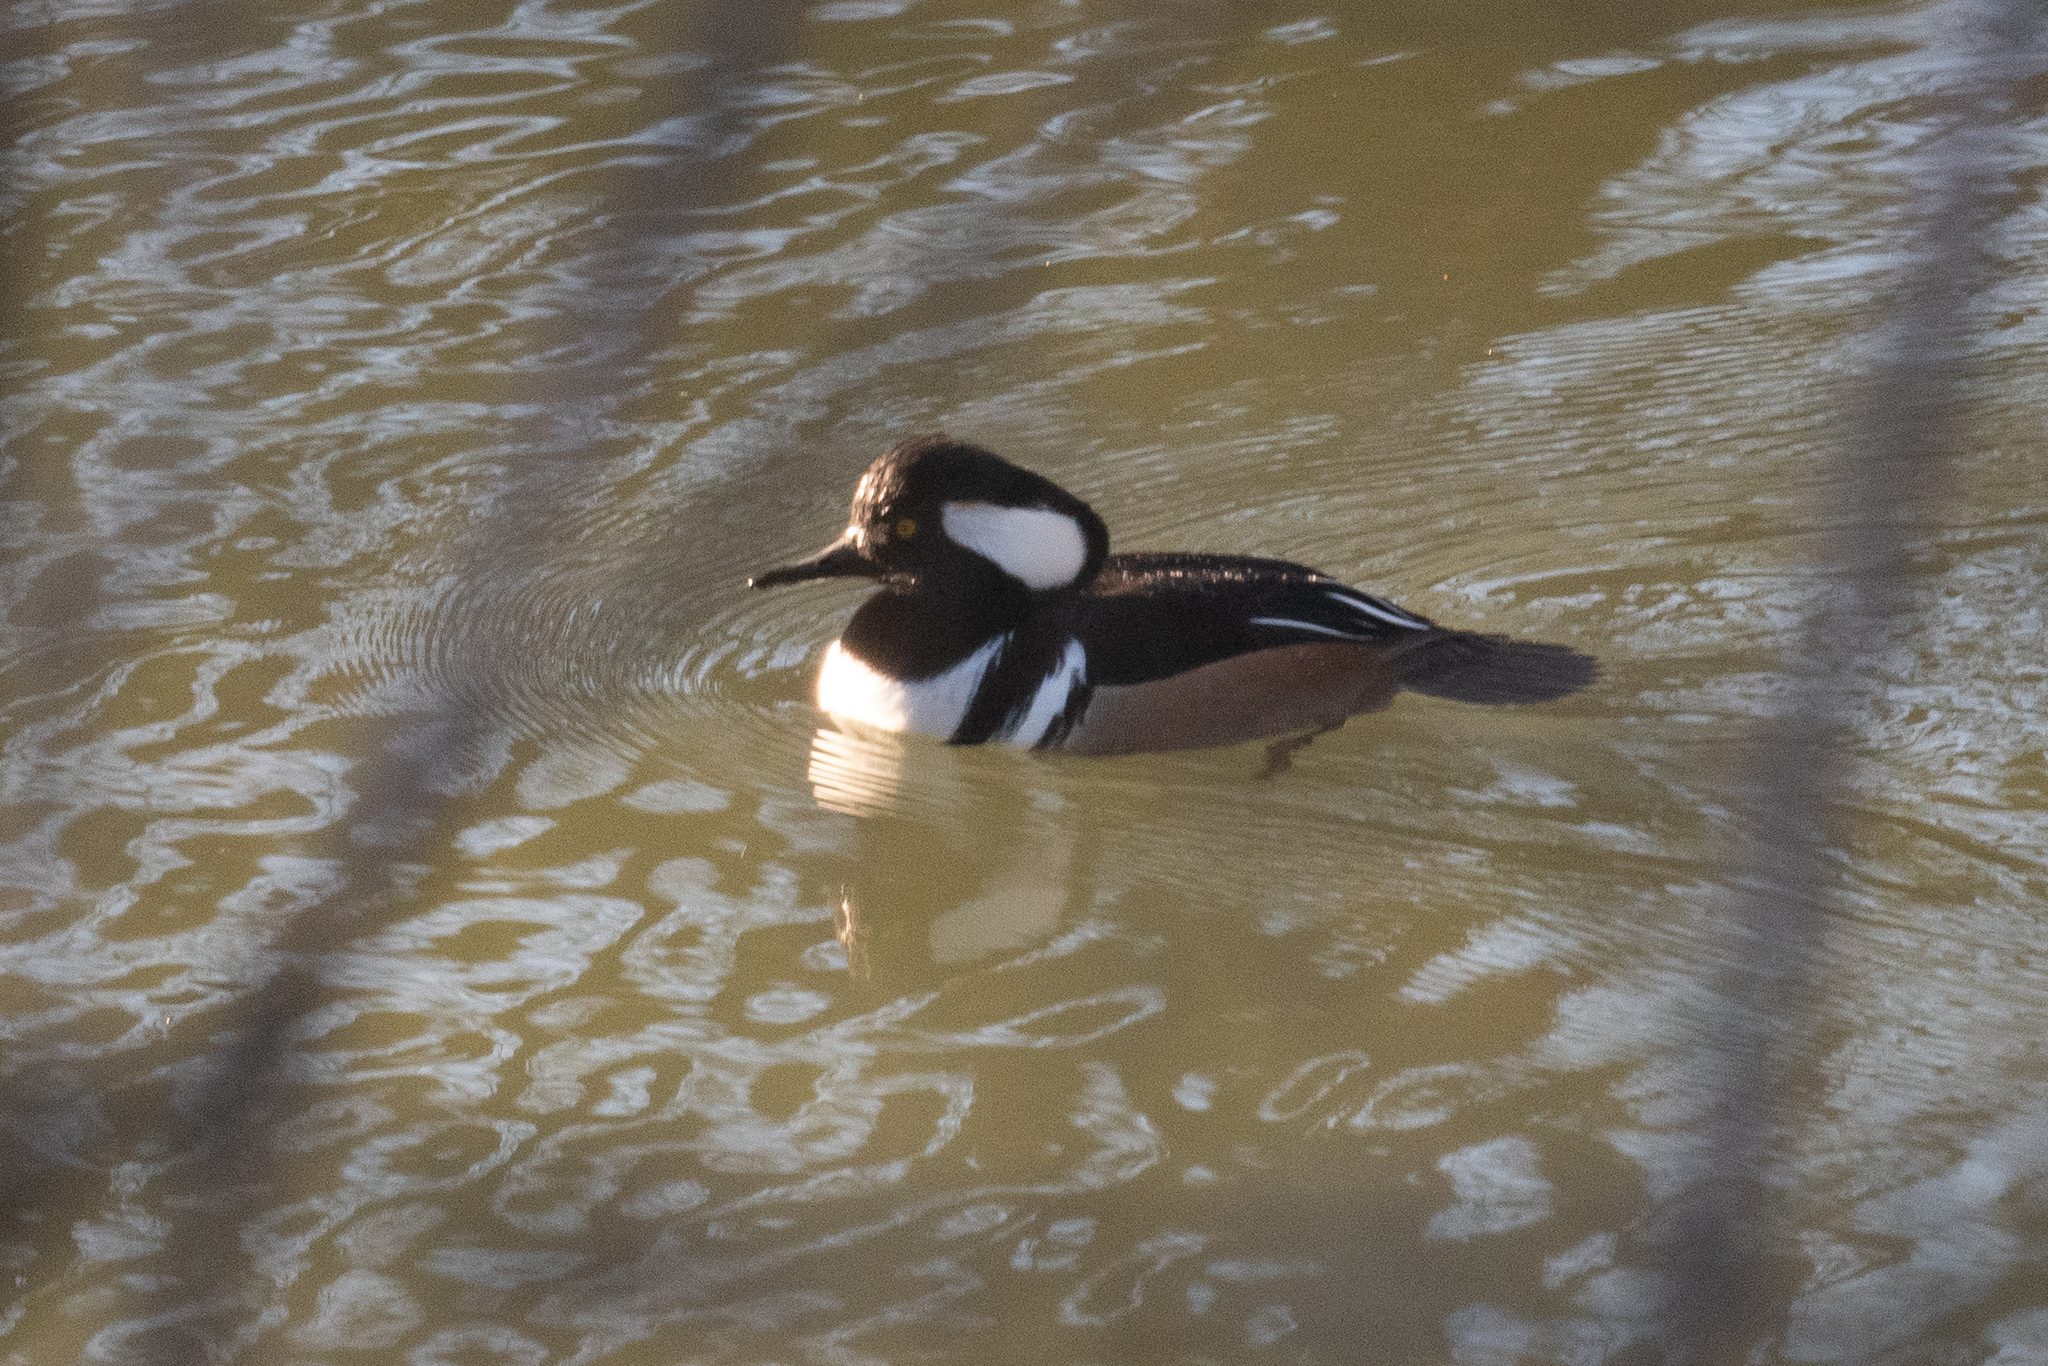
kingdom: Animalia
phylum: Chordata
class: Aves
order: Anseriformes
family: Anatidae
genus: Lophodytes
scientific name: Lophodytes cucullatus
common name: Hooded merganser
